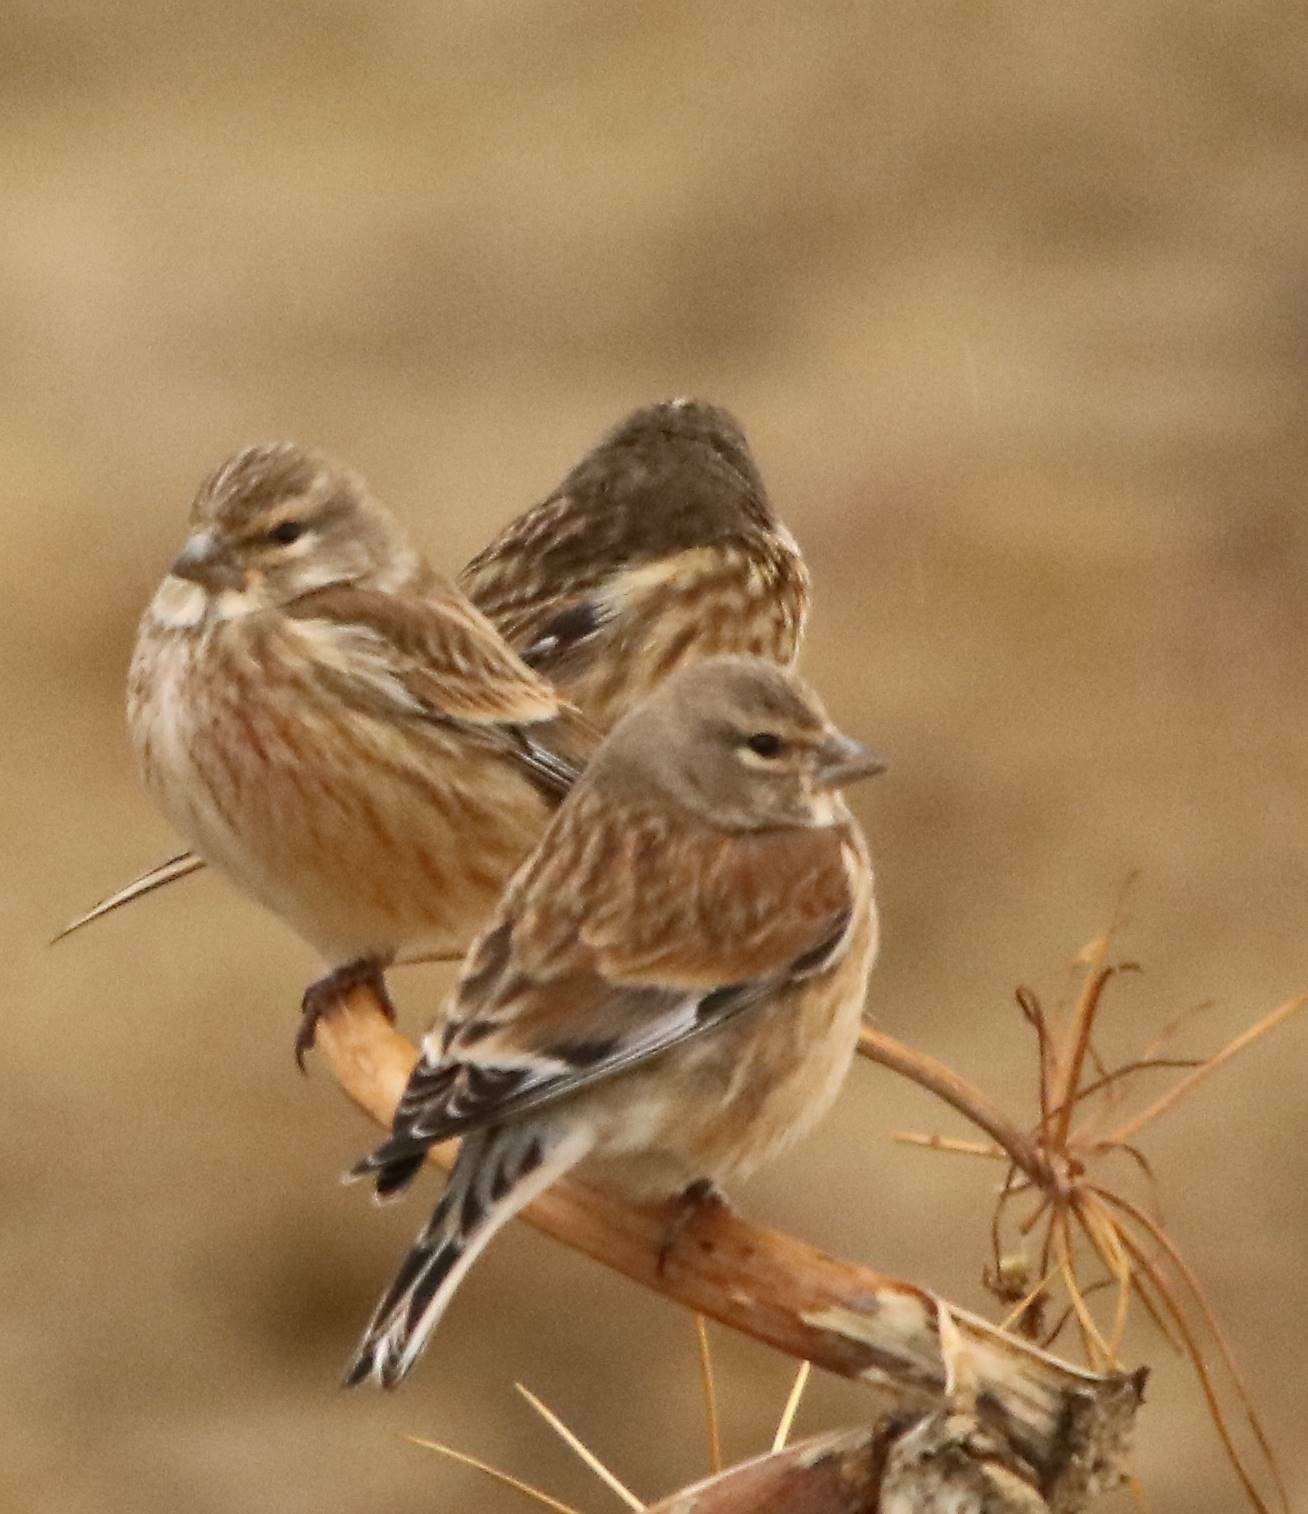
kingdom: Animalia
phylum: Chordata
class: Aves
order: Passeriformes
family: Fringillidae
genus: Linaria
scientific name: Linaria cannabina
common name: Common linnet
